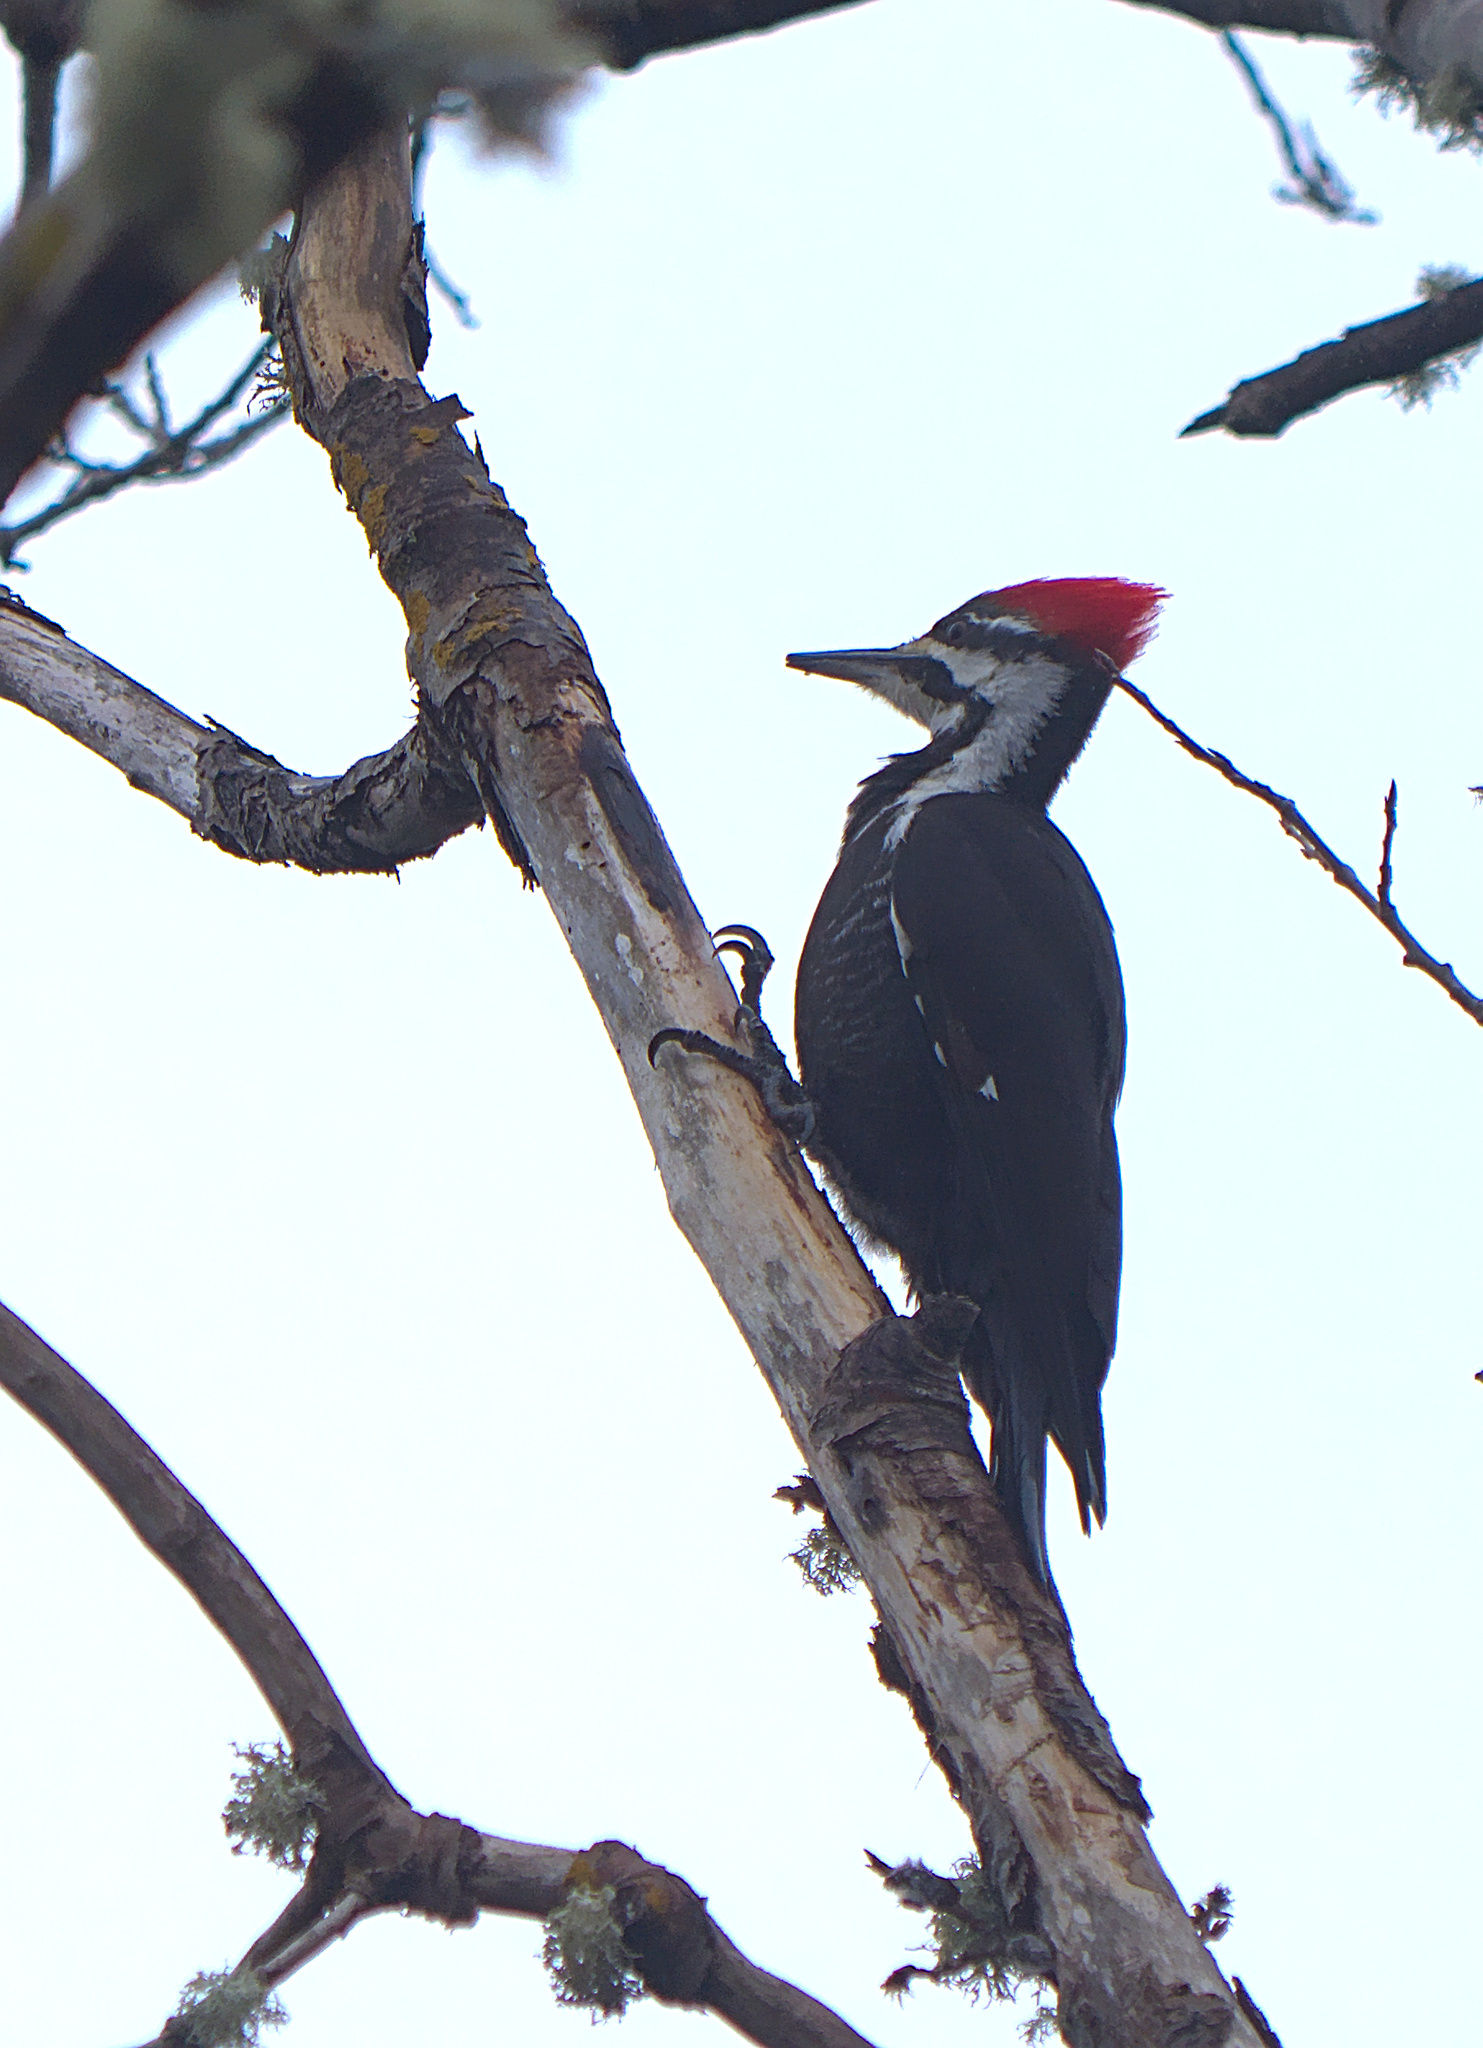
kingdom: Animalia
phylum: Chordata
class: Aves
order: Piciformes
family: Picidae
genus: Dryocopus
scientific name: Dryocopus pileatus
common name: Pileated woodpecker
